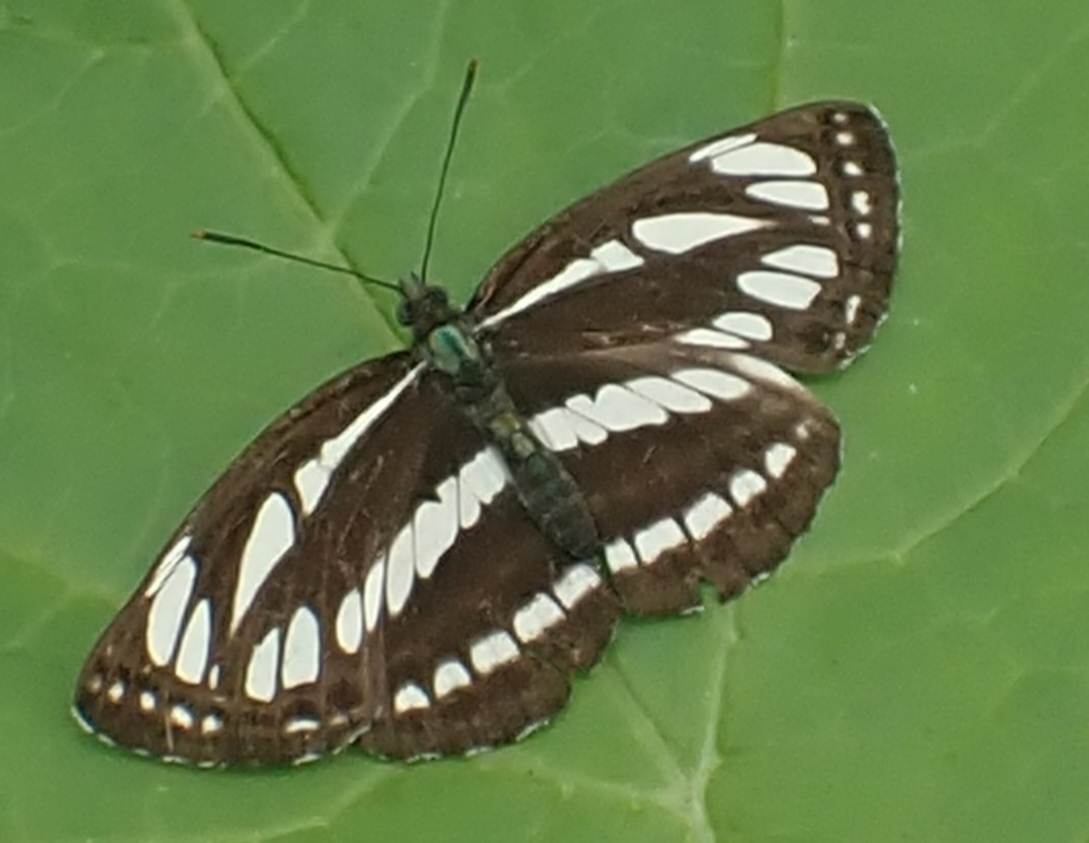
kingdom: Animalia
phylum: Arthropoda
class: Insecta
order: Lepidoptera
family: Nymphalidae
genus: Neptis
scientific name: Neptis sappho
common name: Common glider
